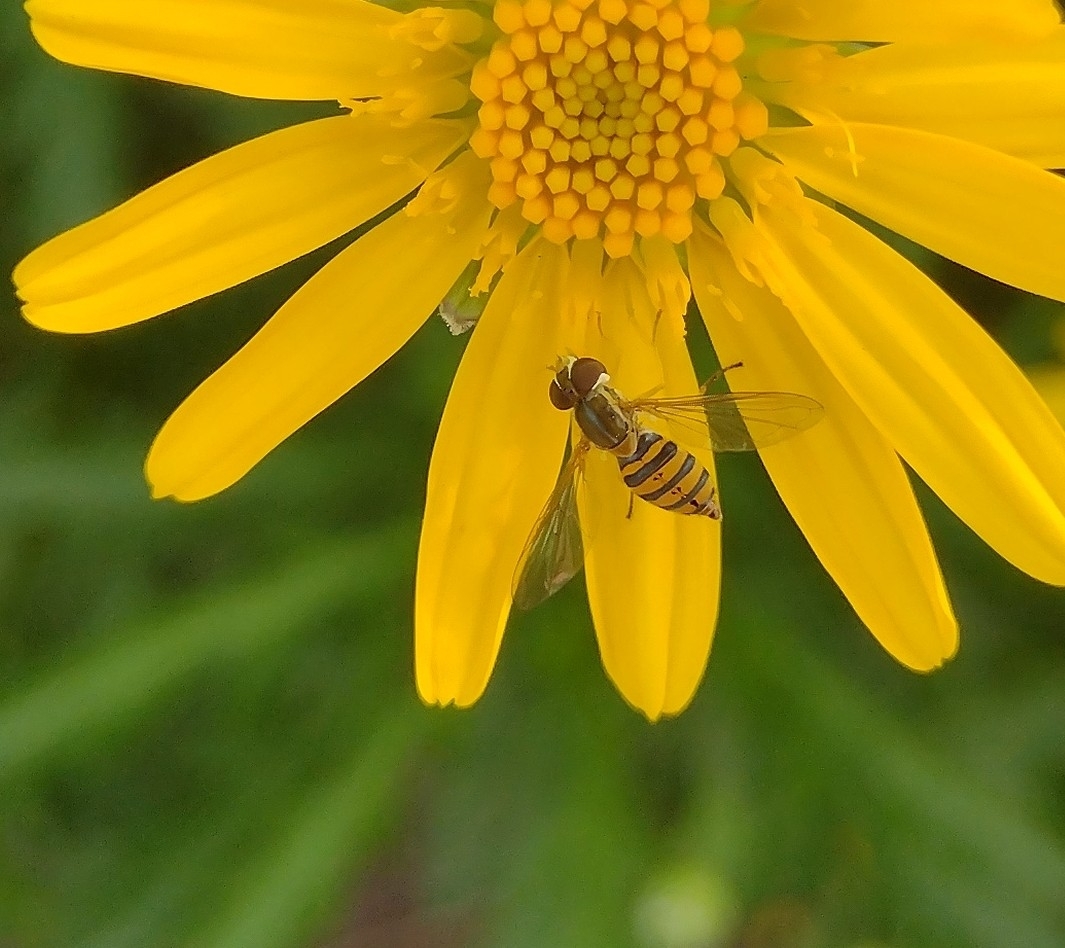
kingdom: Animalia
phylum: Arthropoda
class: Insecta
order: Diptera
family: Syrphidae
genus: Toxomerus
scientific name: Toxomerus
